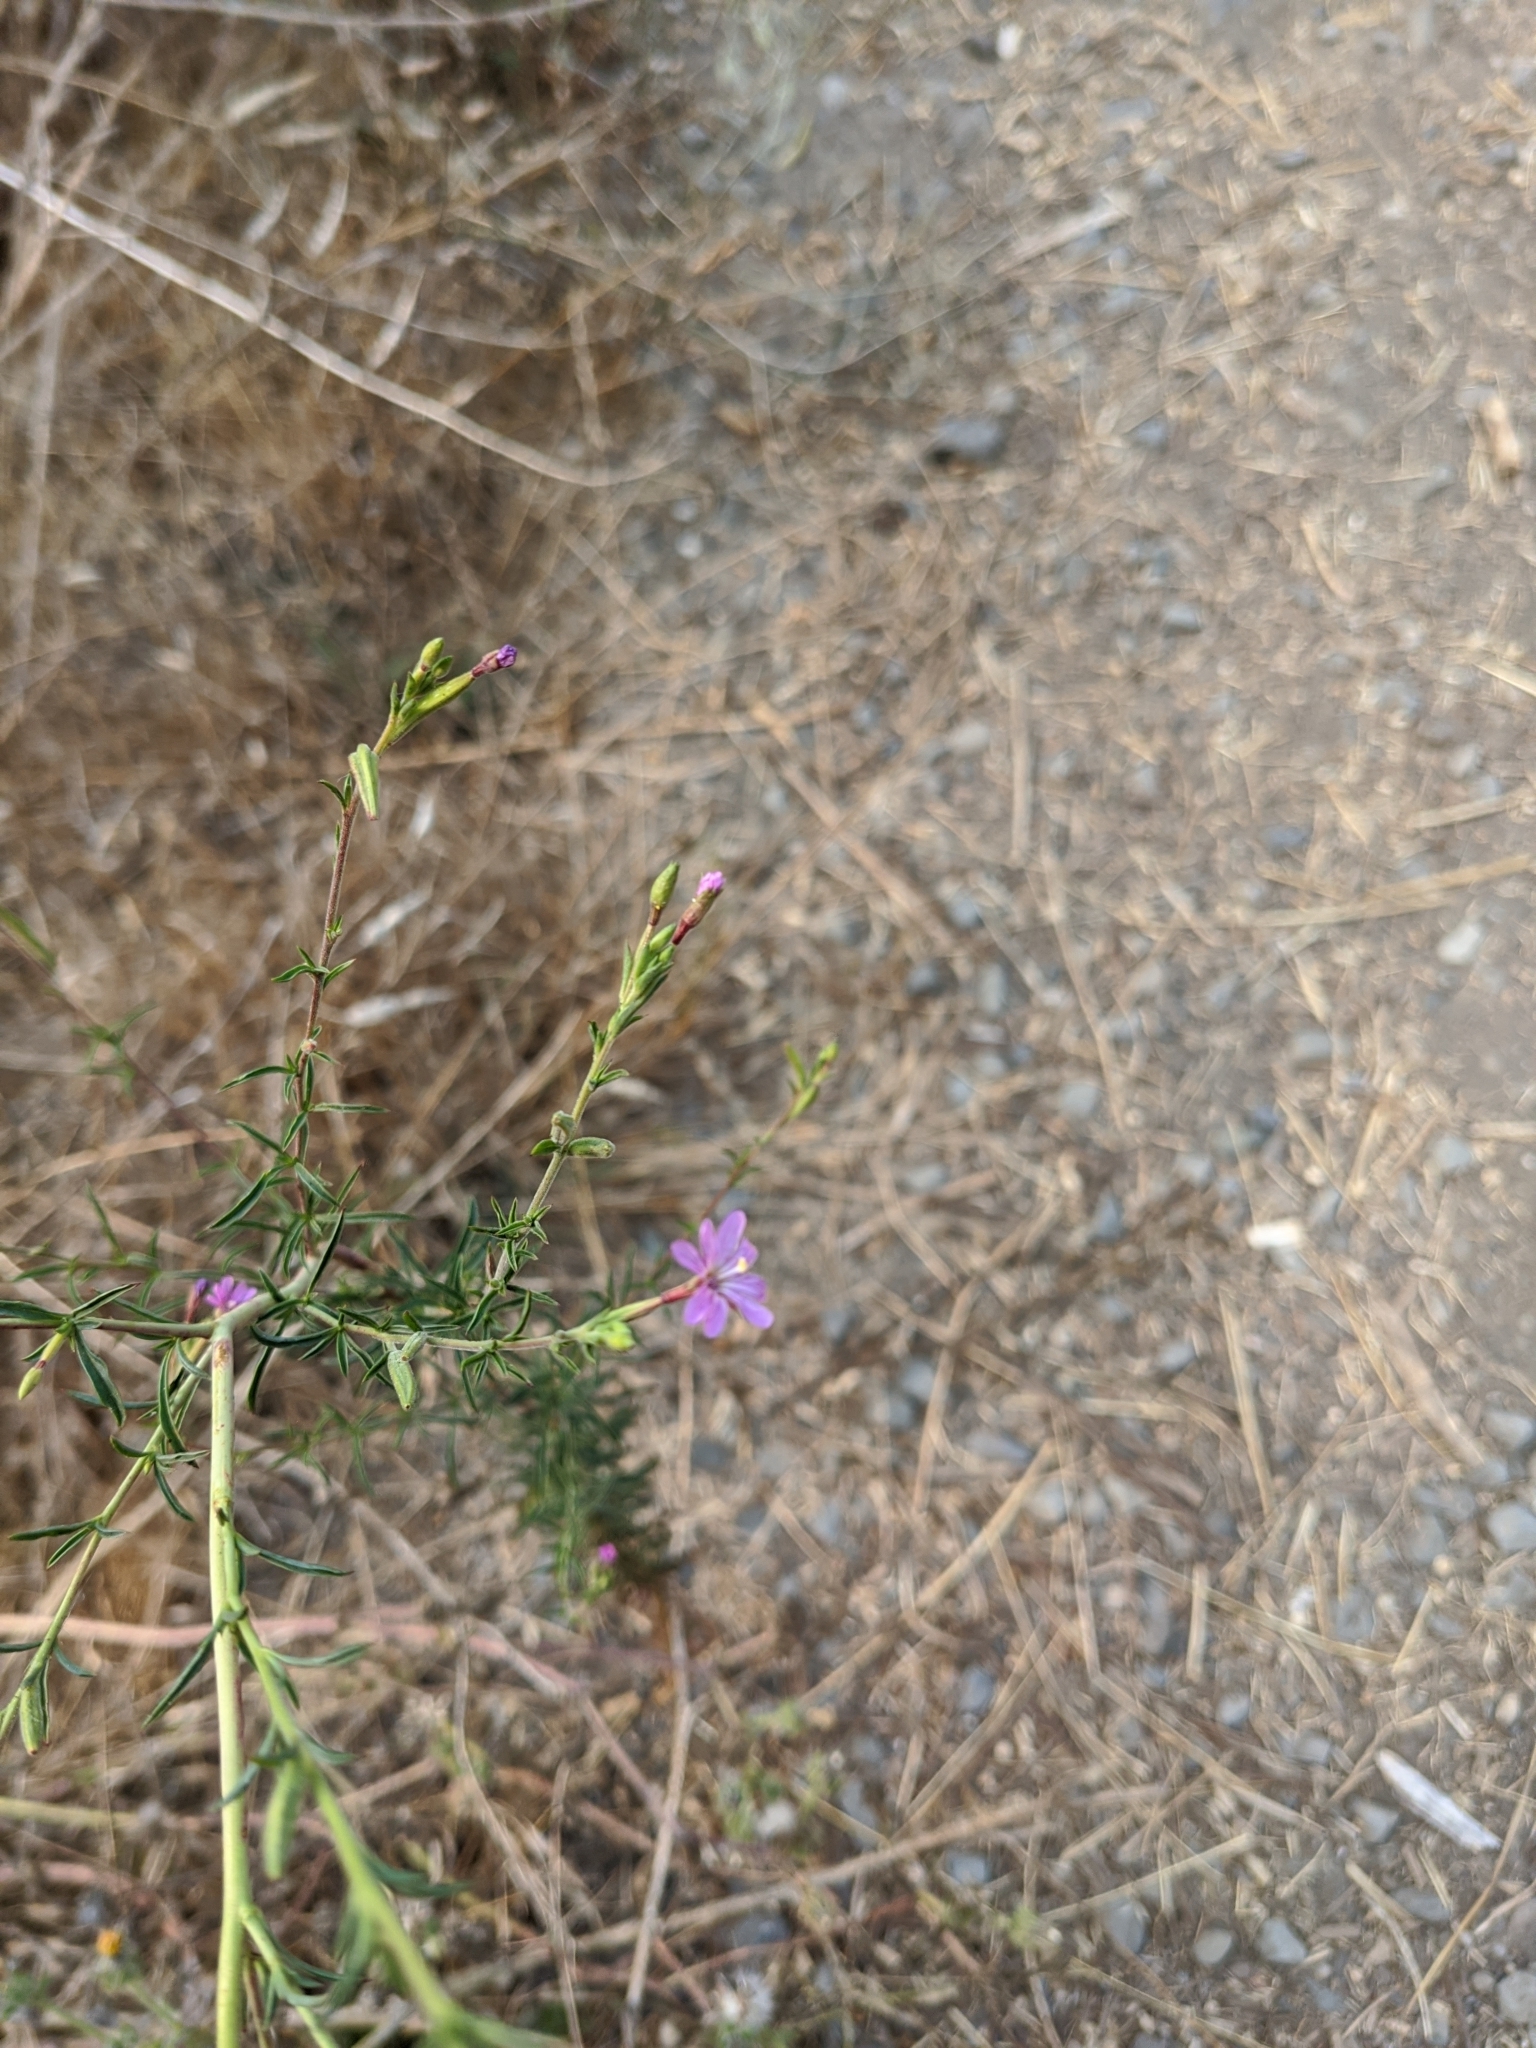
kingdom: Plantae
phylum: Tracheophyta
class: Magnoliopsida
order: Myrtales
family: Onagraceae
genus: Epilobium
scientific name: Epilobium brachycarpum
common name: Annual willowherb
